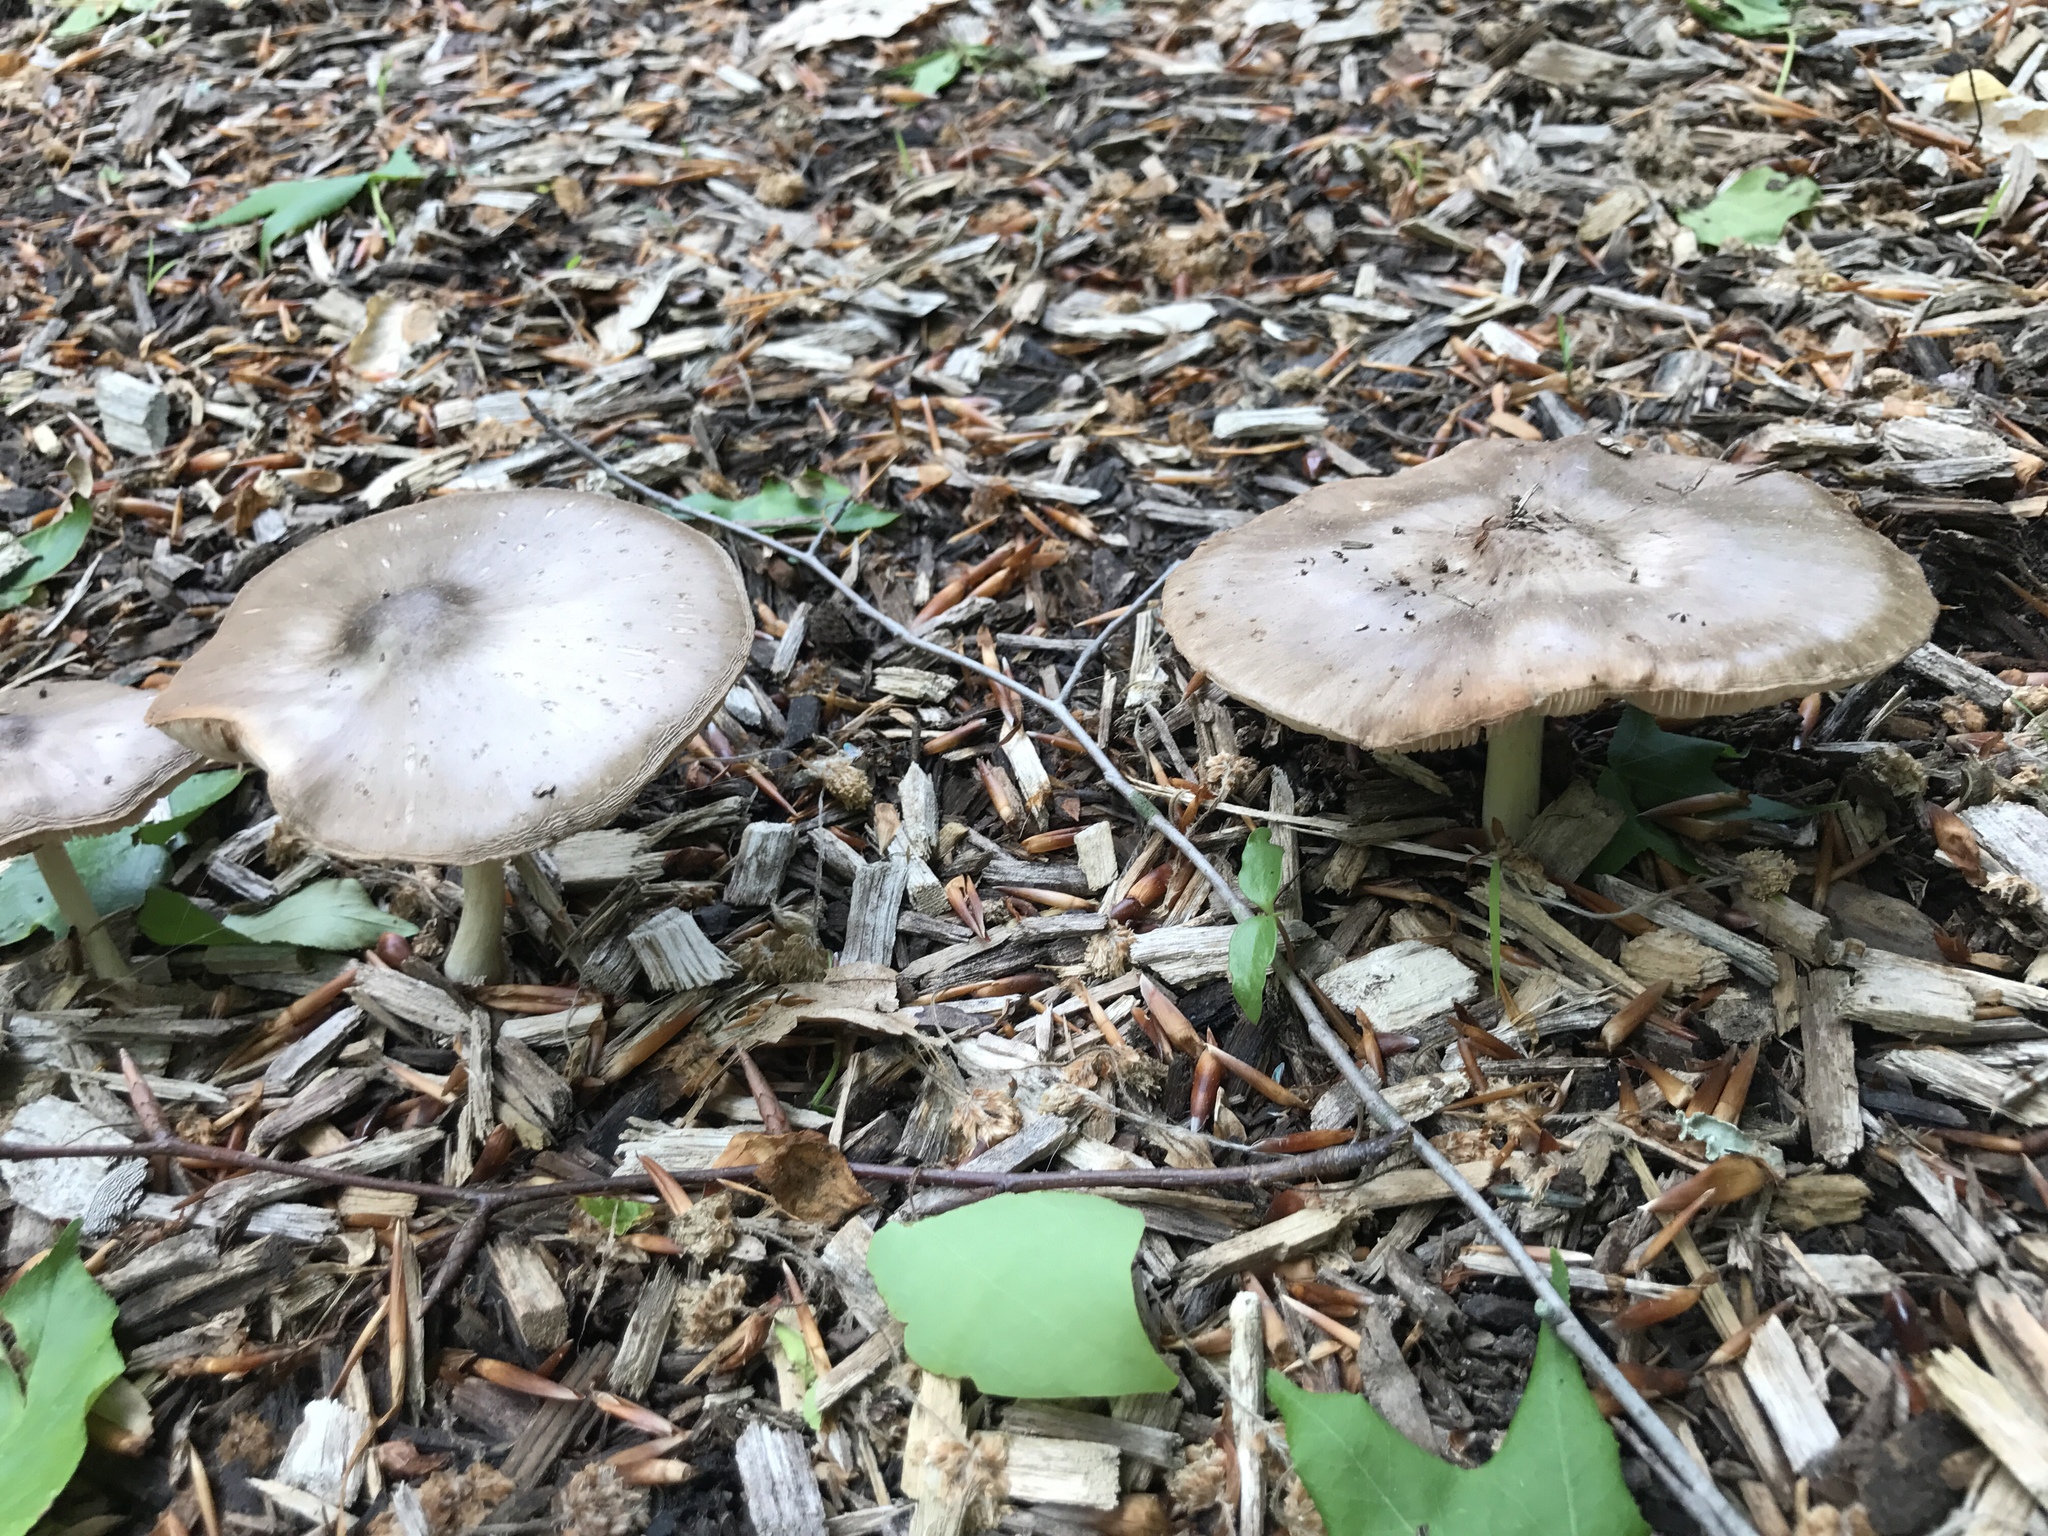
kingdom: Fungi
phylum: Basidiomycota
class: Agaricomycetes
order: Agaricales
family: Pluteaceae
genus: Pluteus
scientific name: Pluteus cervinus
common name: Deer shield
